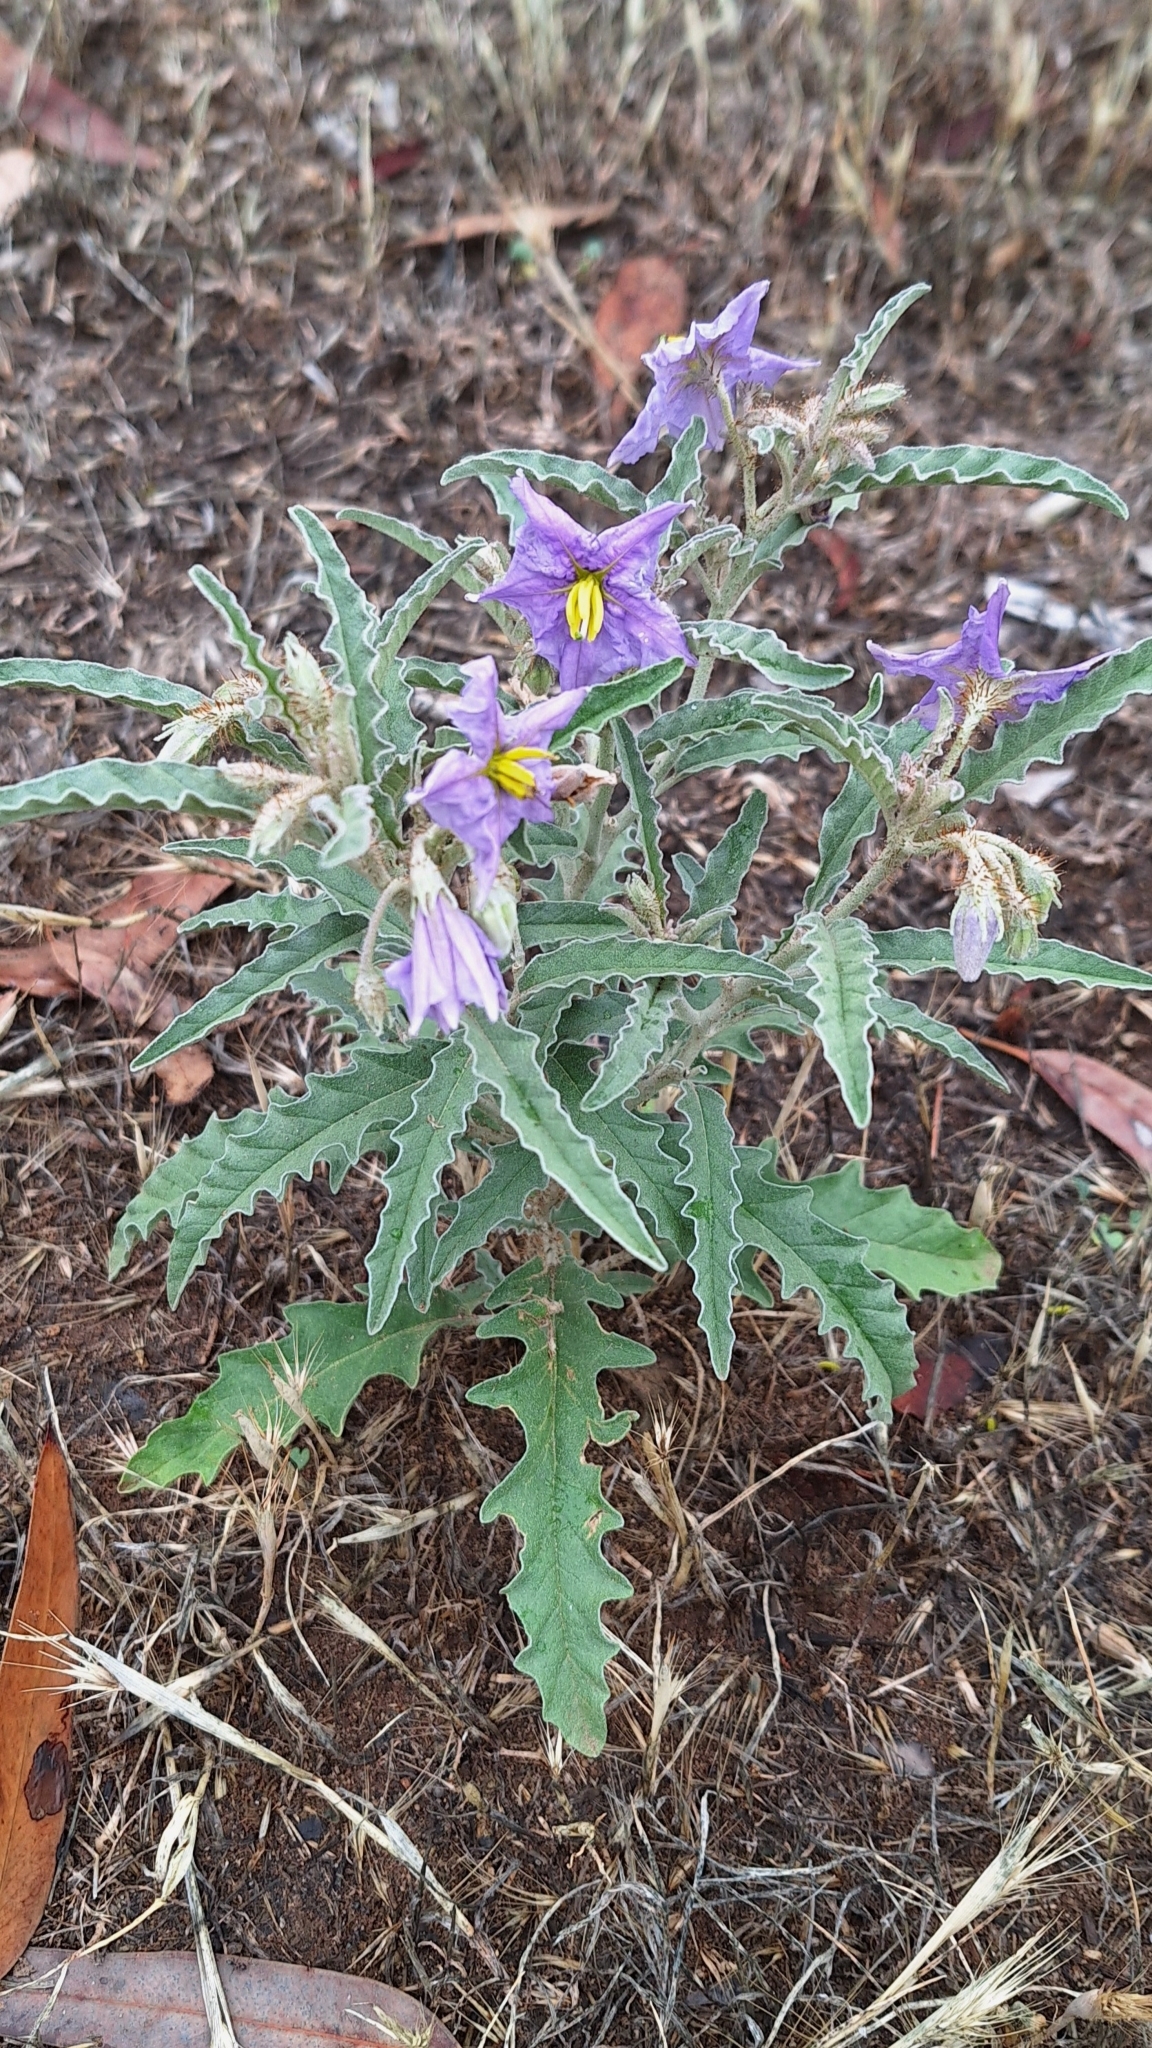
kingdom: Plantae
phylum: Tracheophyta
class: Magnoliopsida
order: Solanales
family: Solanaceae
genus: Solanum
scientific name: Solanum elaeagnifolium
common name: Silverleaf nightshade
